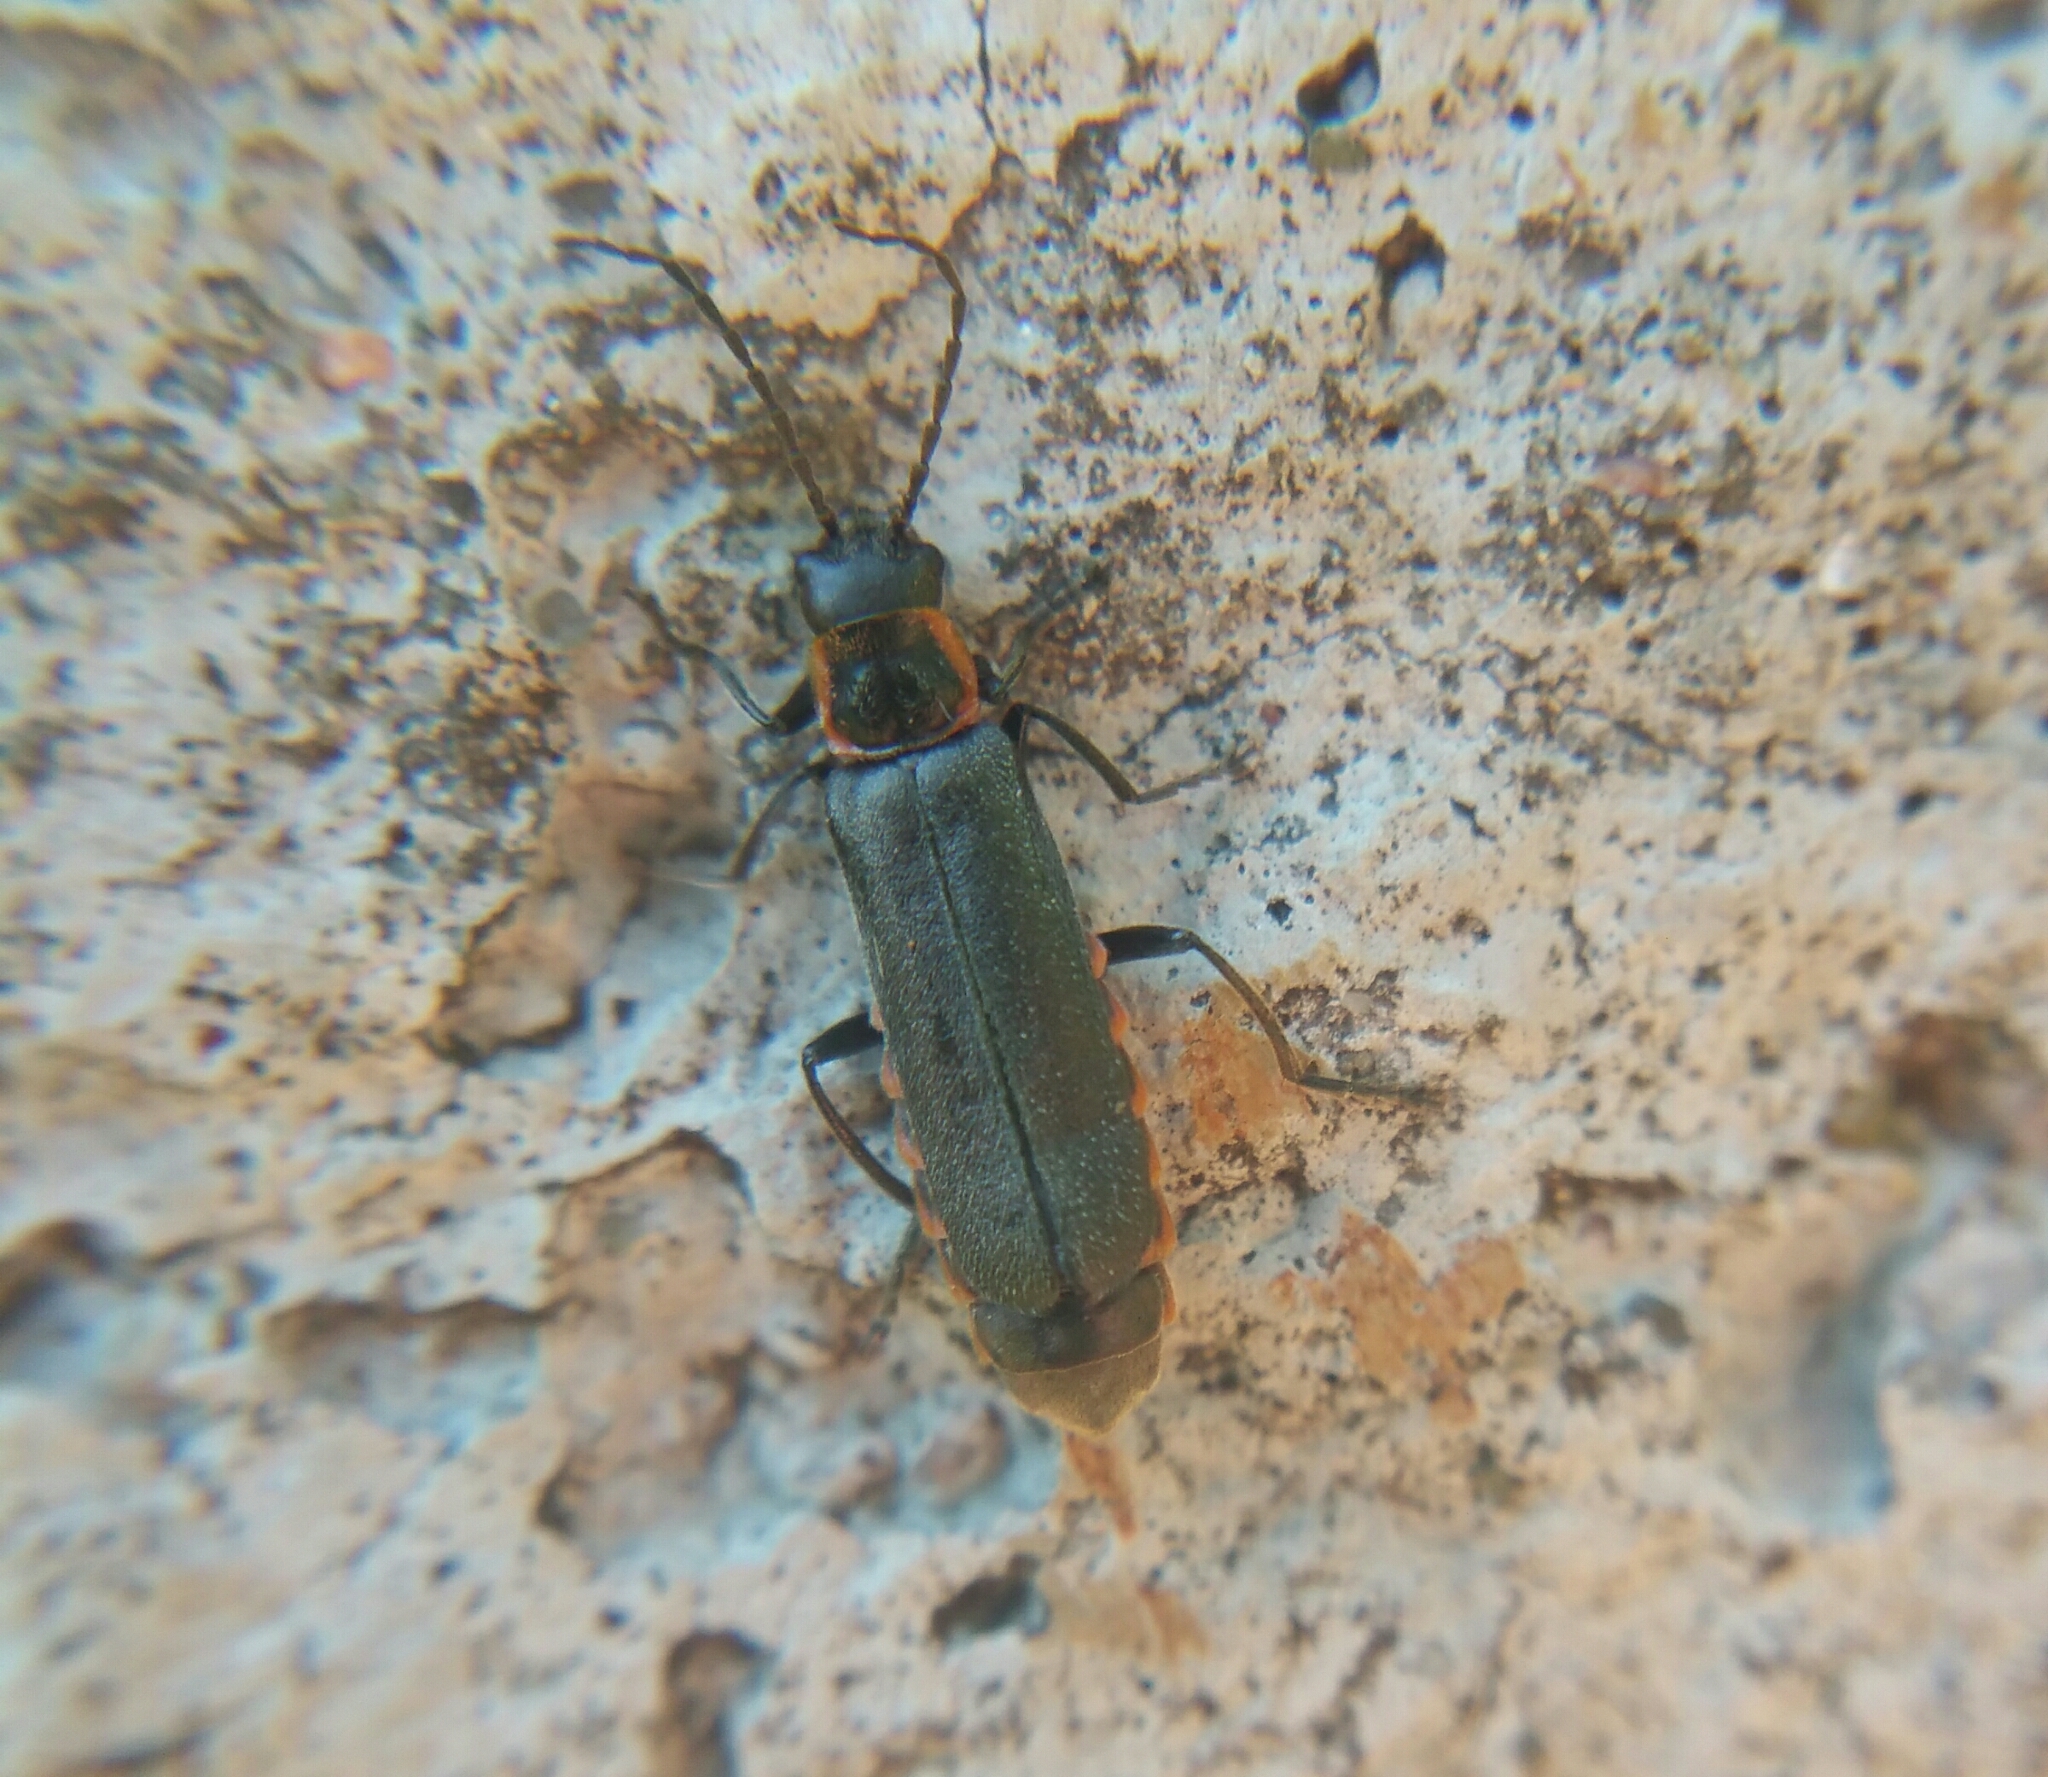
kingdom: Animalia
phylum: Arthropoda
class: Insecta
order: Coleoptera
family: Cantharidae
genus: Cantharis
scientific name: Cantharis pulicaria
